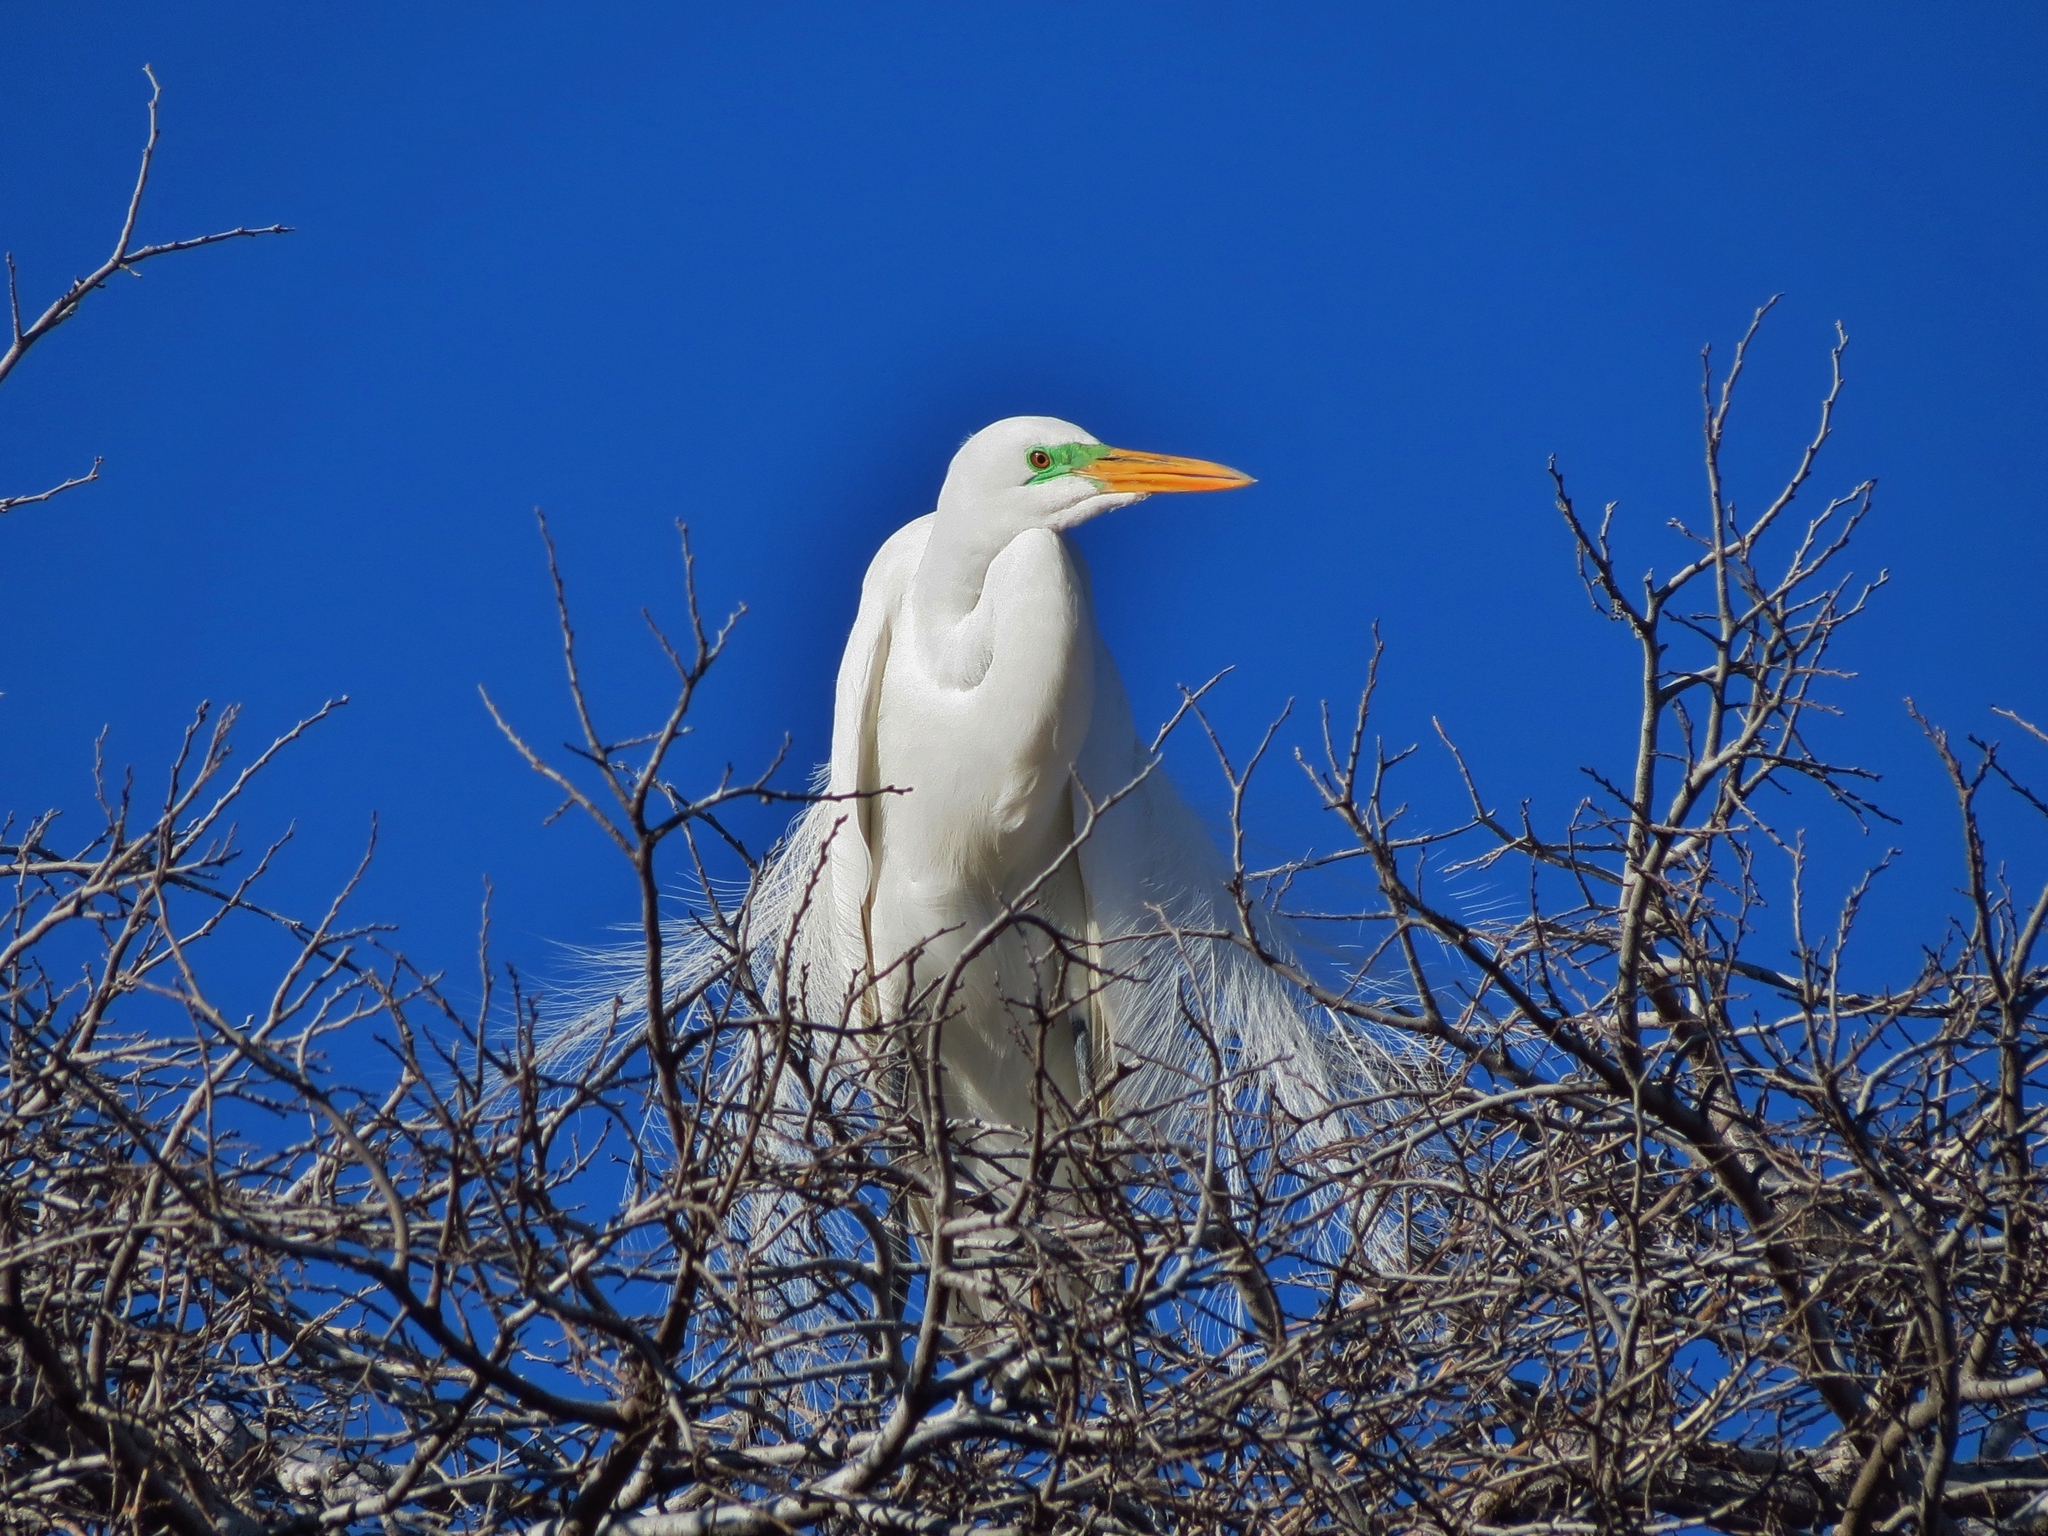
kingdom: Animalia
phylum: Chordata
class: Aves
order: Pelecaniformes
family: Ardeidae
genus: Ardea
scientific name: Ardea alba
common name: Great egret
